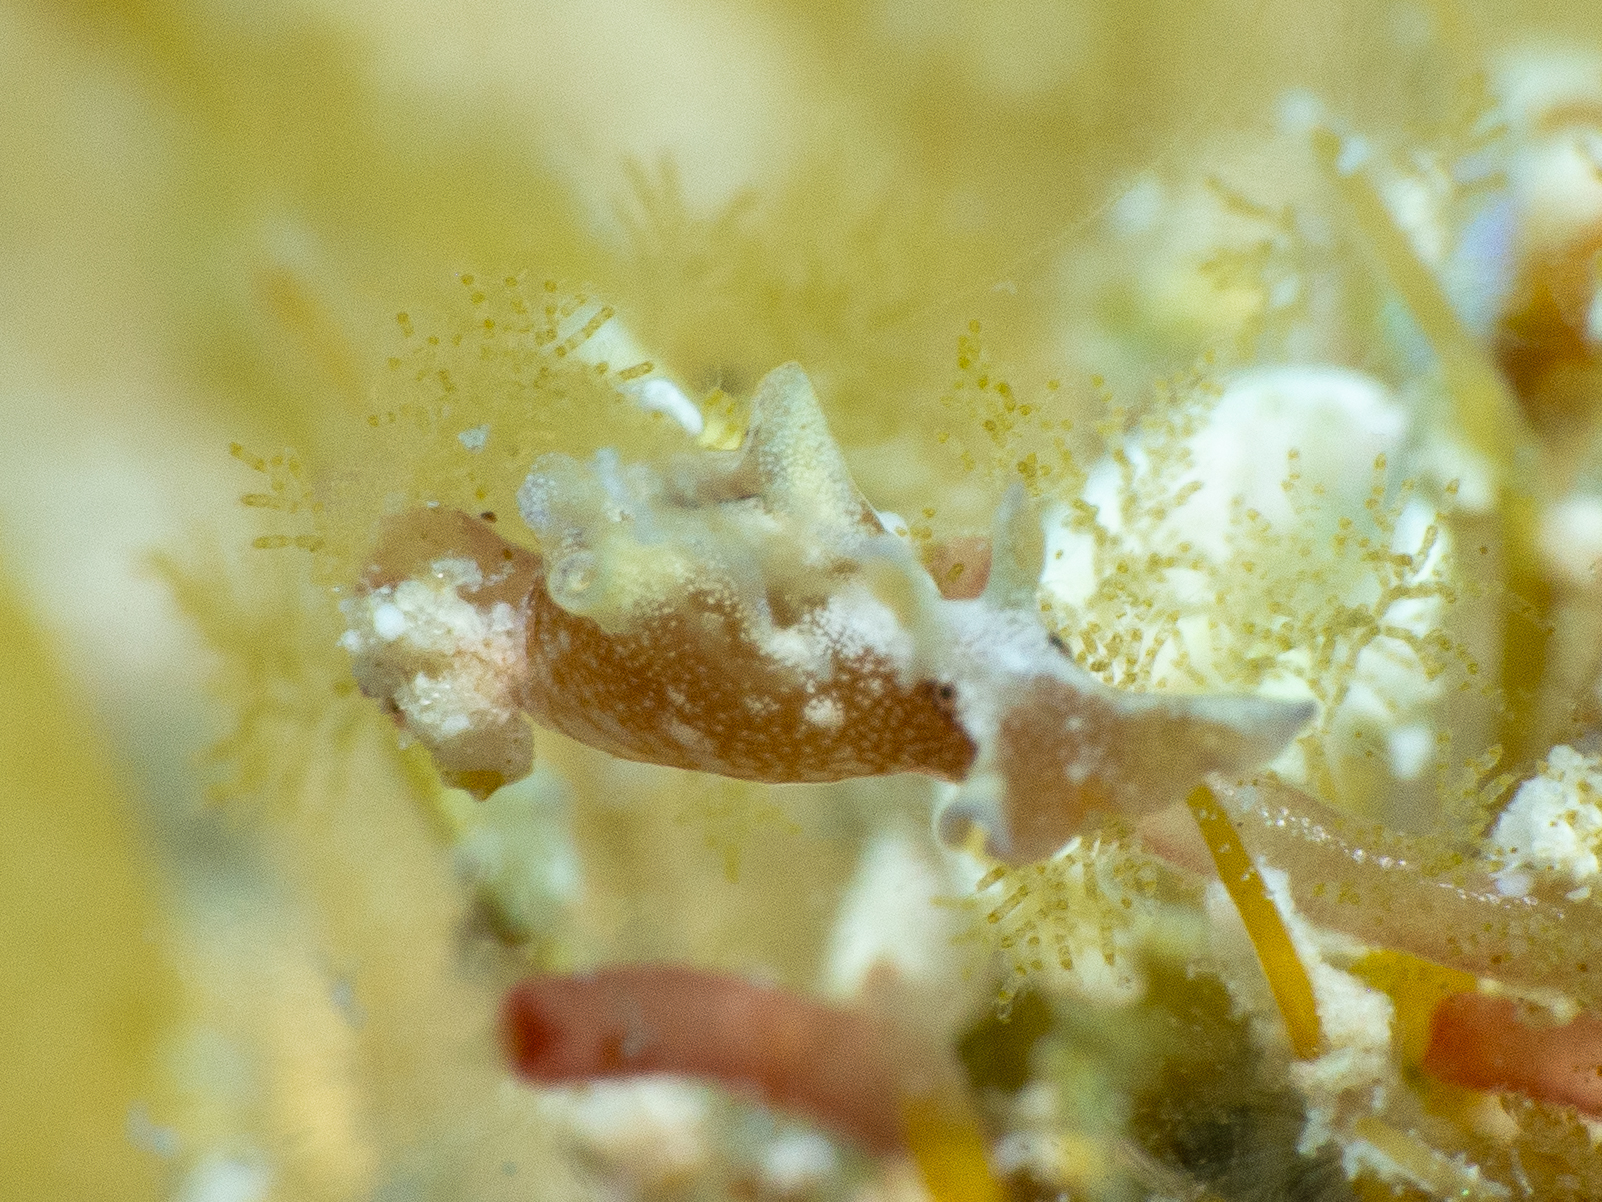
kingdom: Animalia
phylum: Mollusca
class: Gastropoda
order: Aplysiida
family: Aplysiidae
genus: Aplysia
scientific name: Aplysia parvula
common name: Dwarf sea hare
